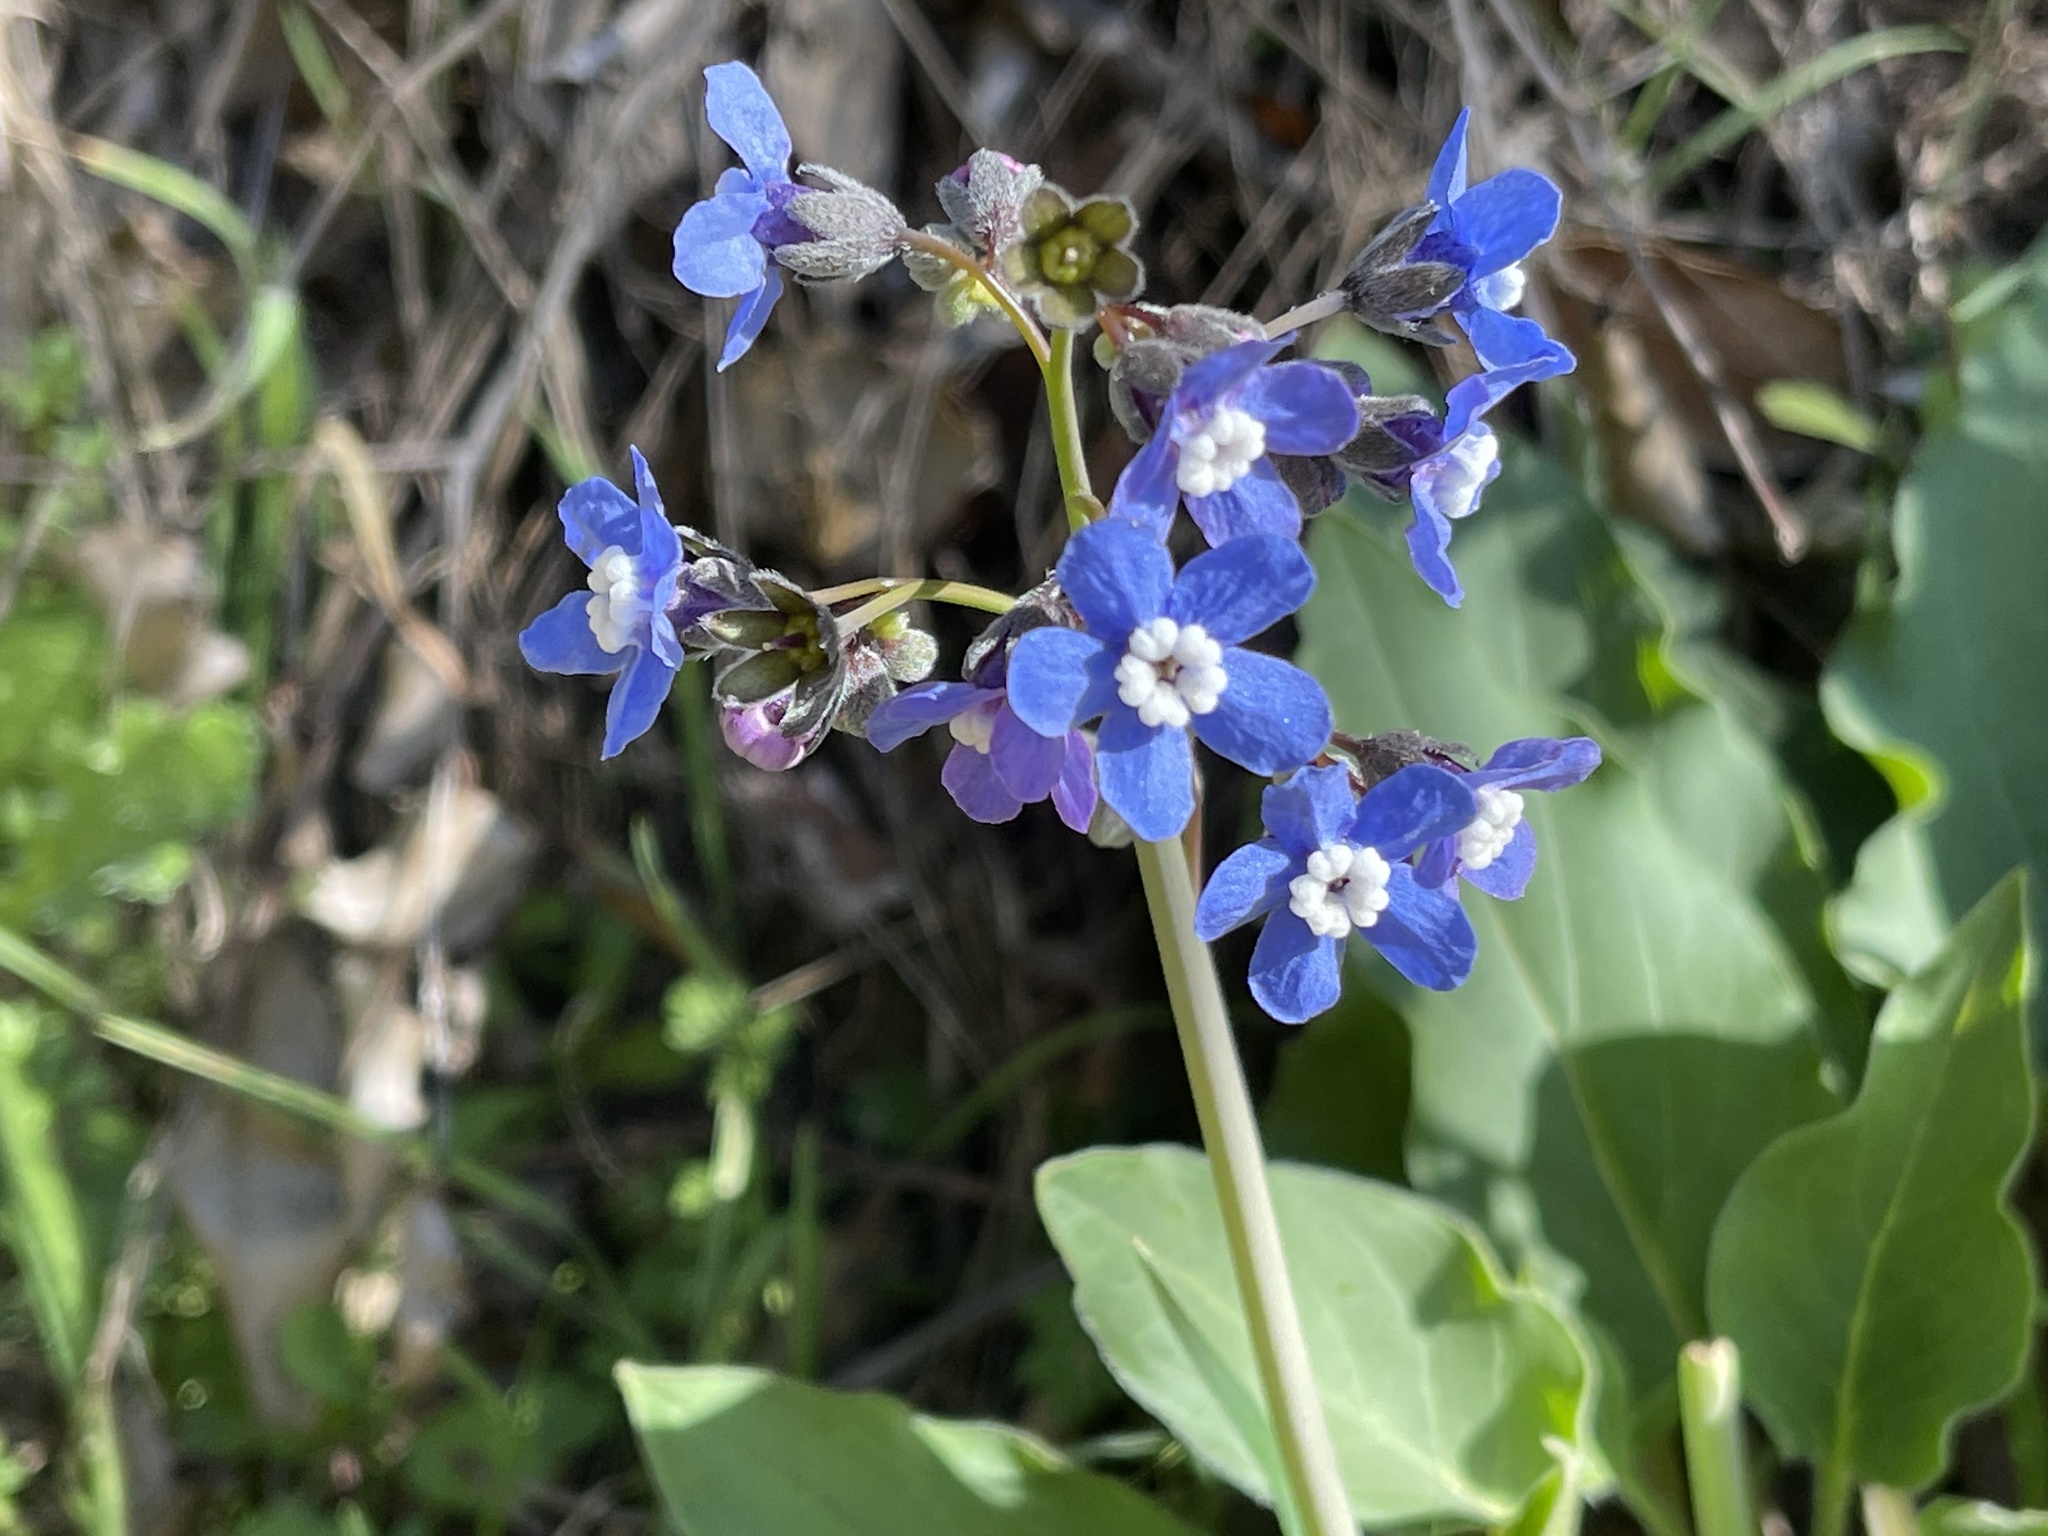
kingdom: Plantae
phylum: Tracheophyta
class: Magnoliopsida
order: Boraginales
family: Boraginaceae
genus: Adelinia
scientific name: Adelinia grande
